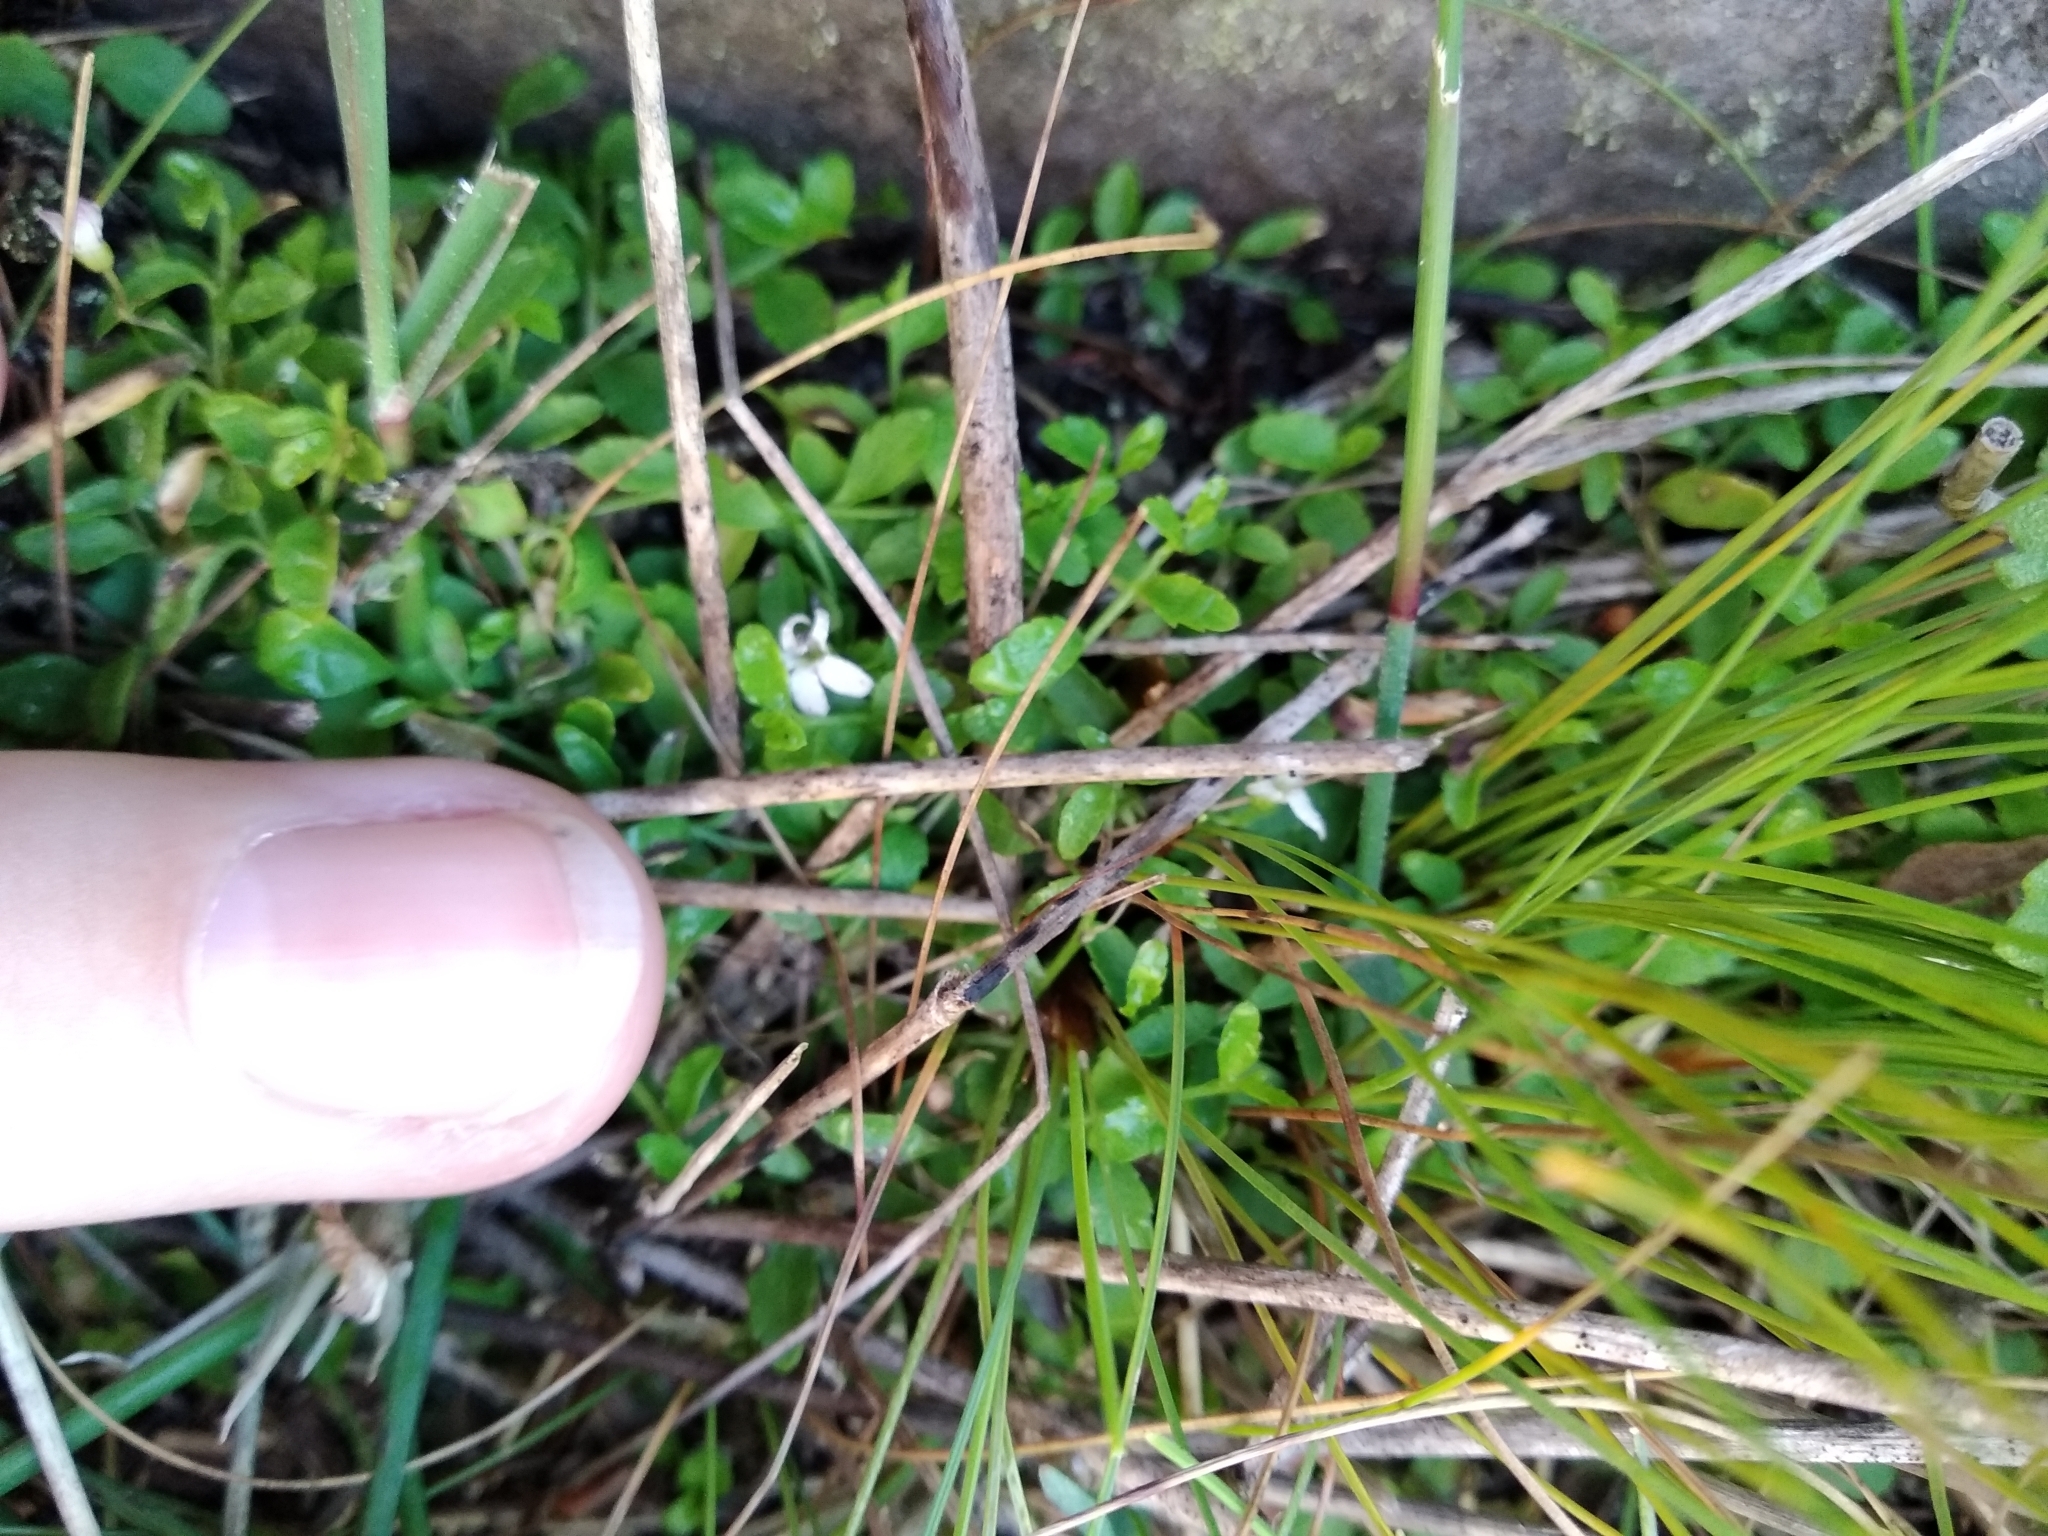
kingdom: Plantae
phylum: Tracheophyta
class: Magnoliopsida
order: Asterales
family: Campanulaceae
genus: Unigenes
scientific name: Unigenes humifusa
